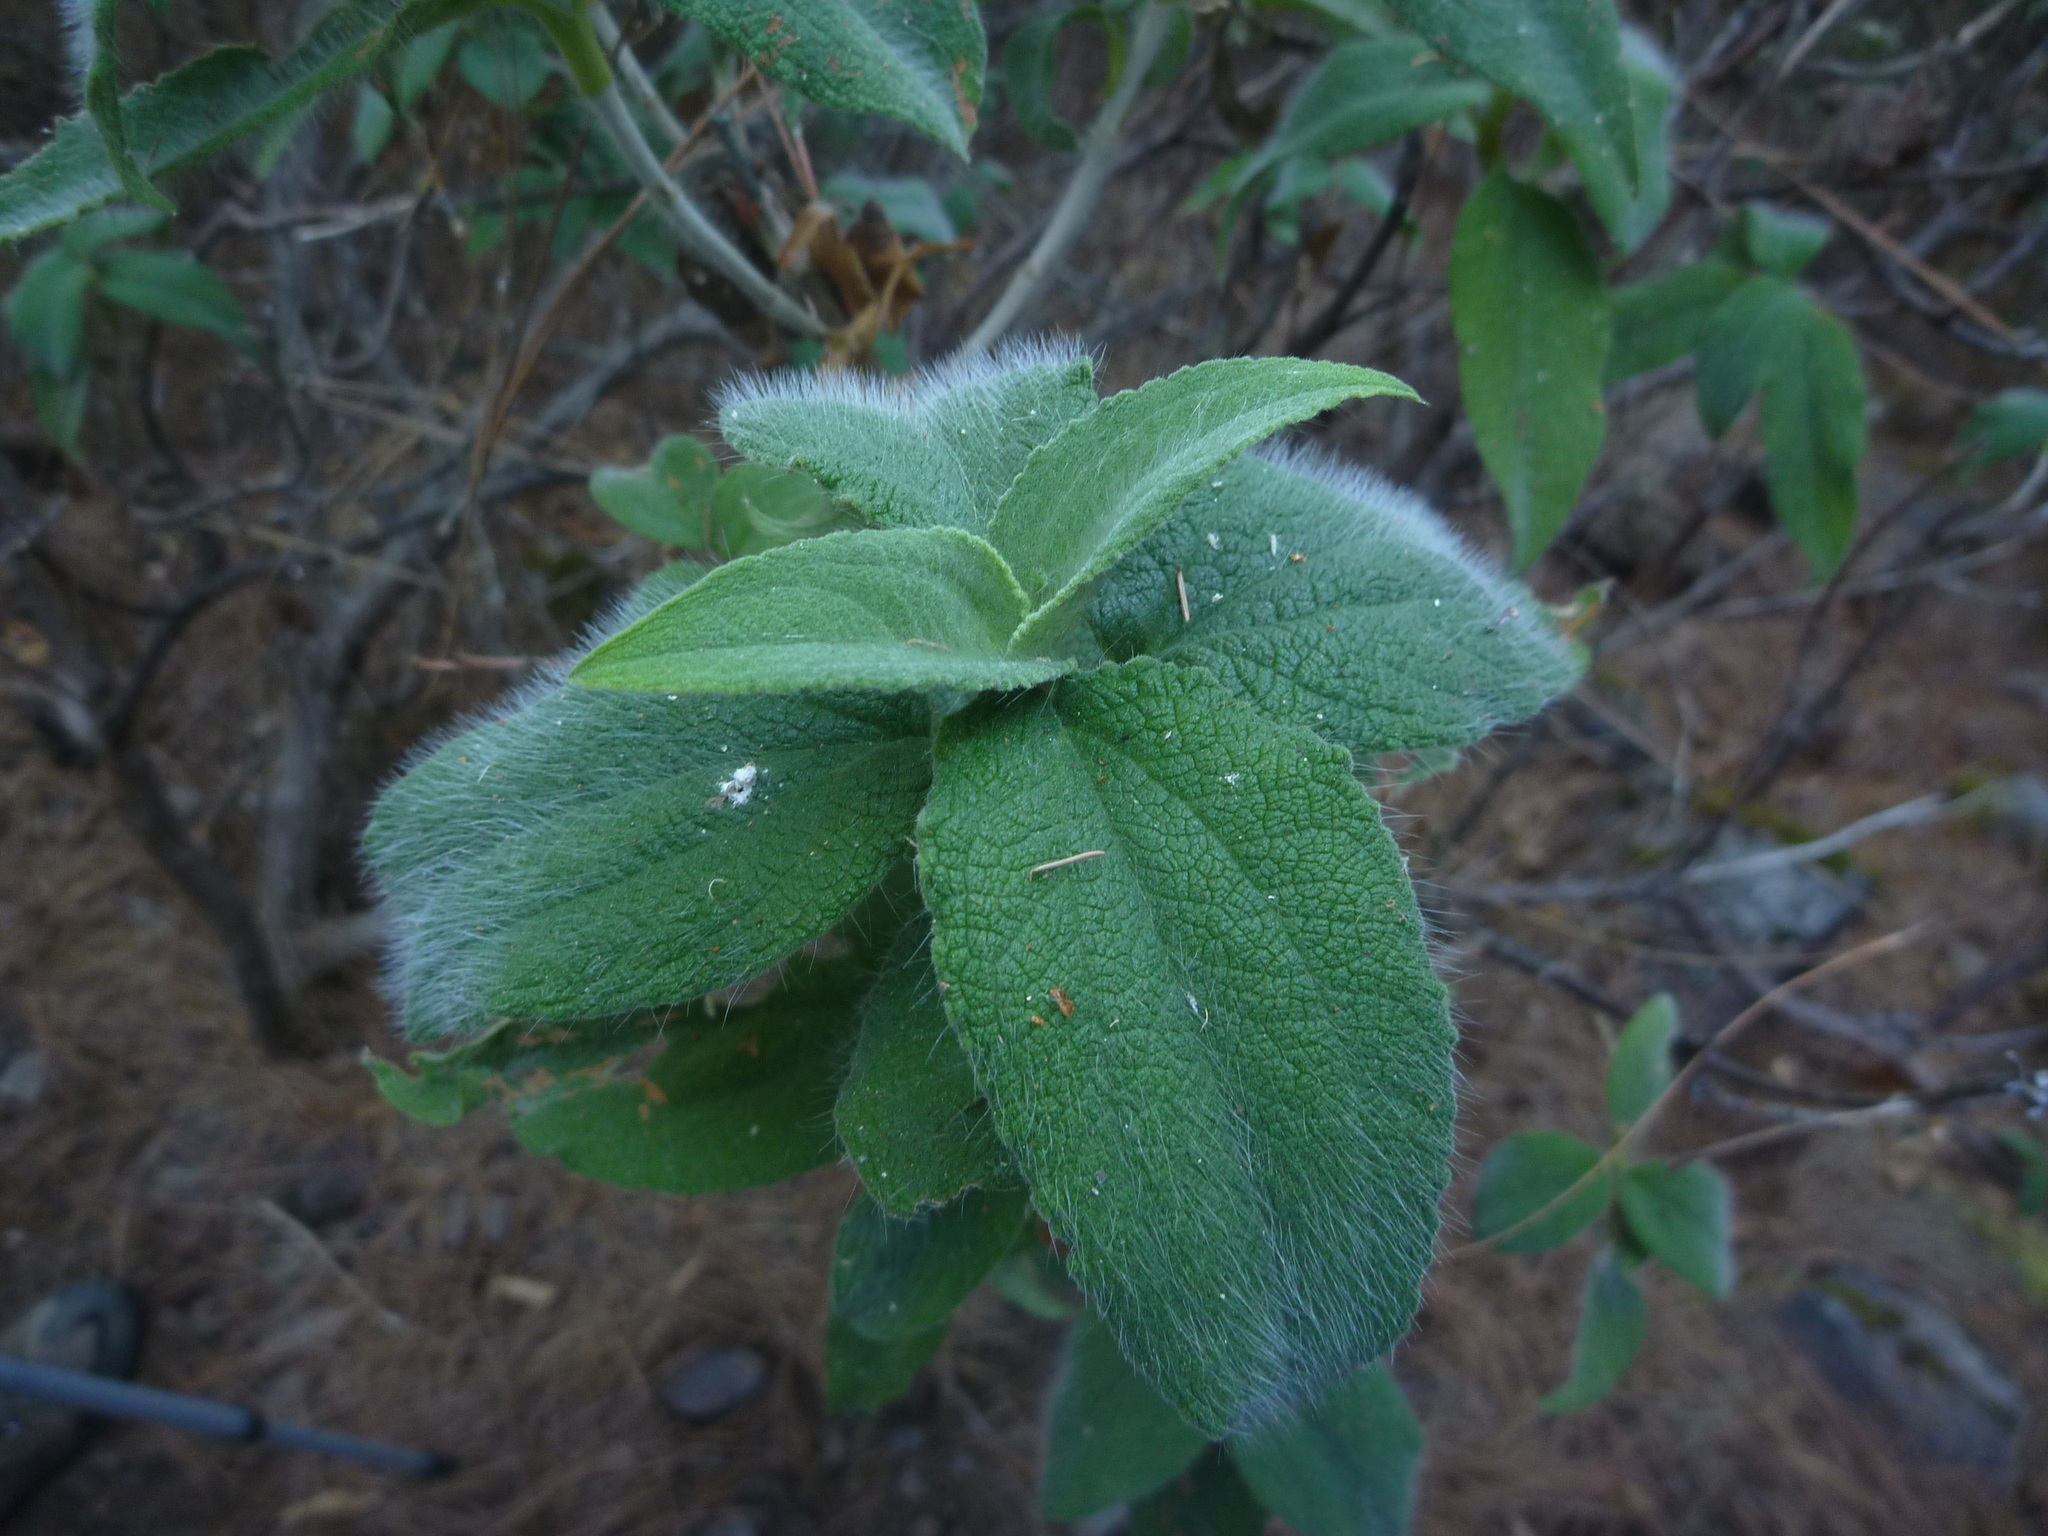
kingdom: Plantae
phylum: Tracheophyta
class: Magnoliopsida
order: Malvales
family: Cistaceae
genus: Cistus
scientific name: Cistus symphytifolius
